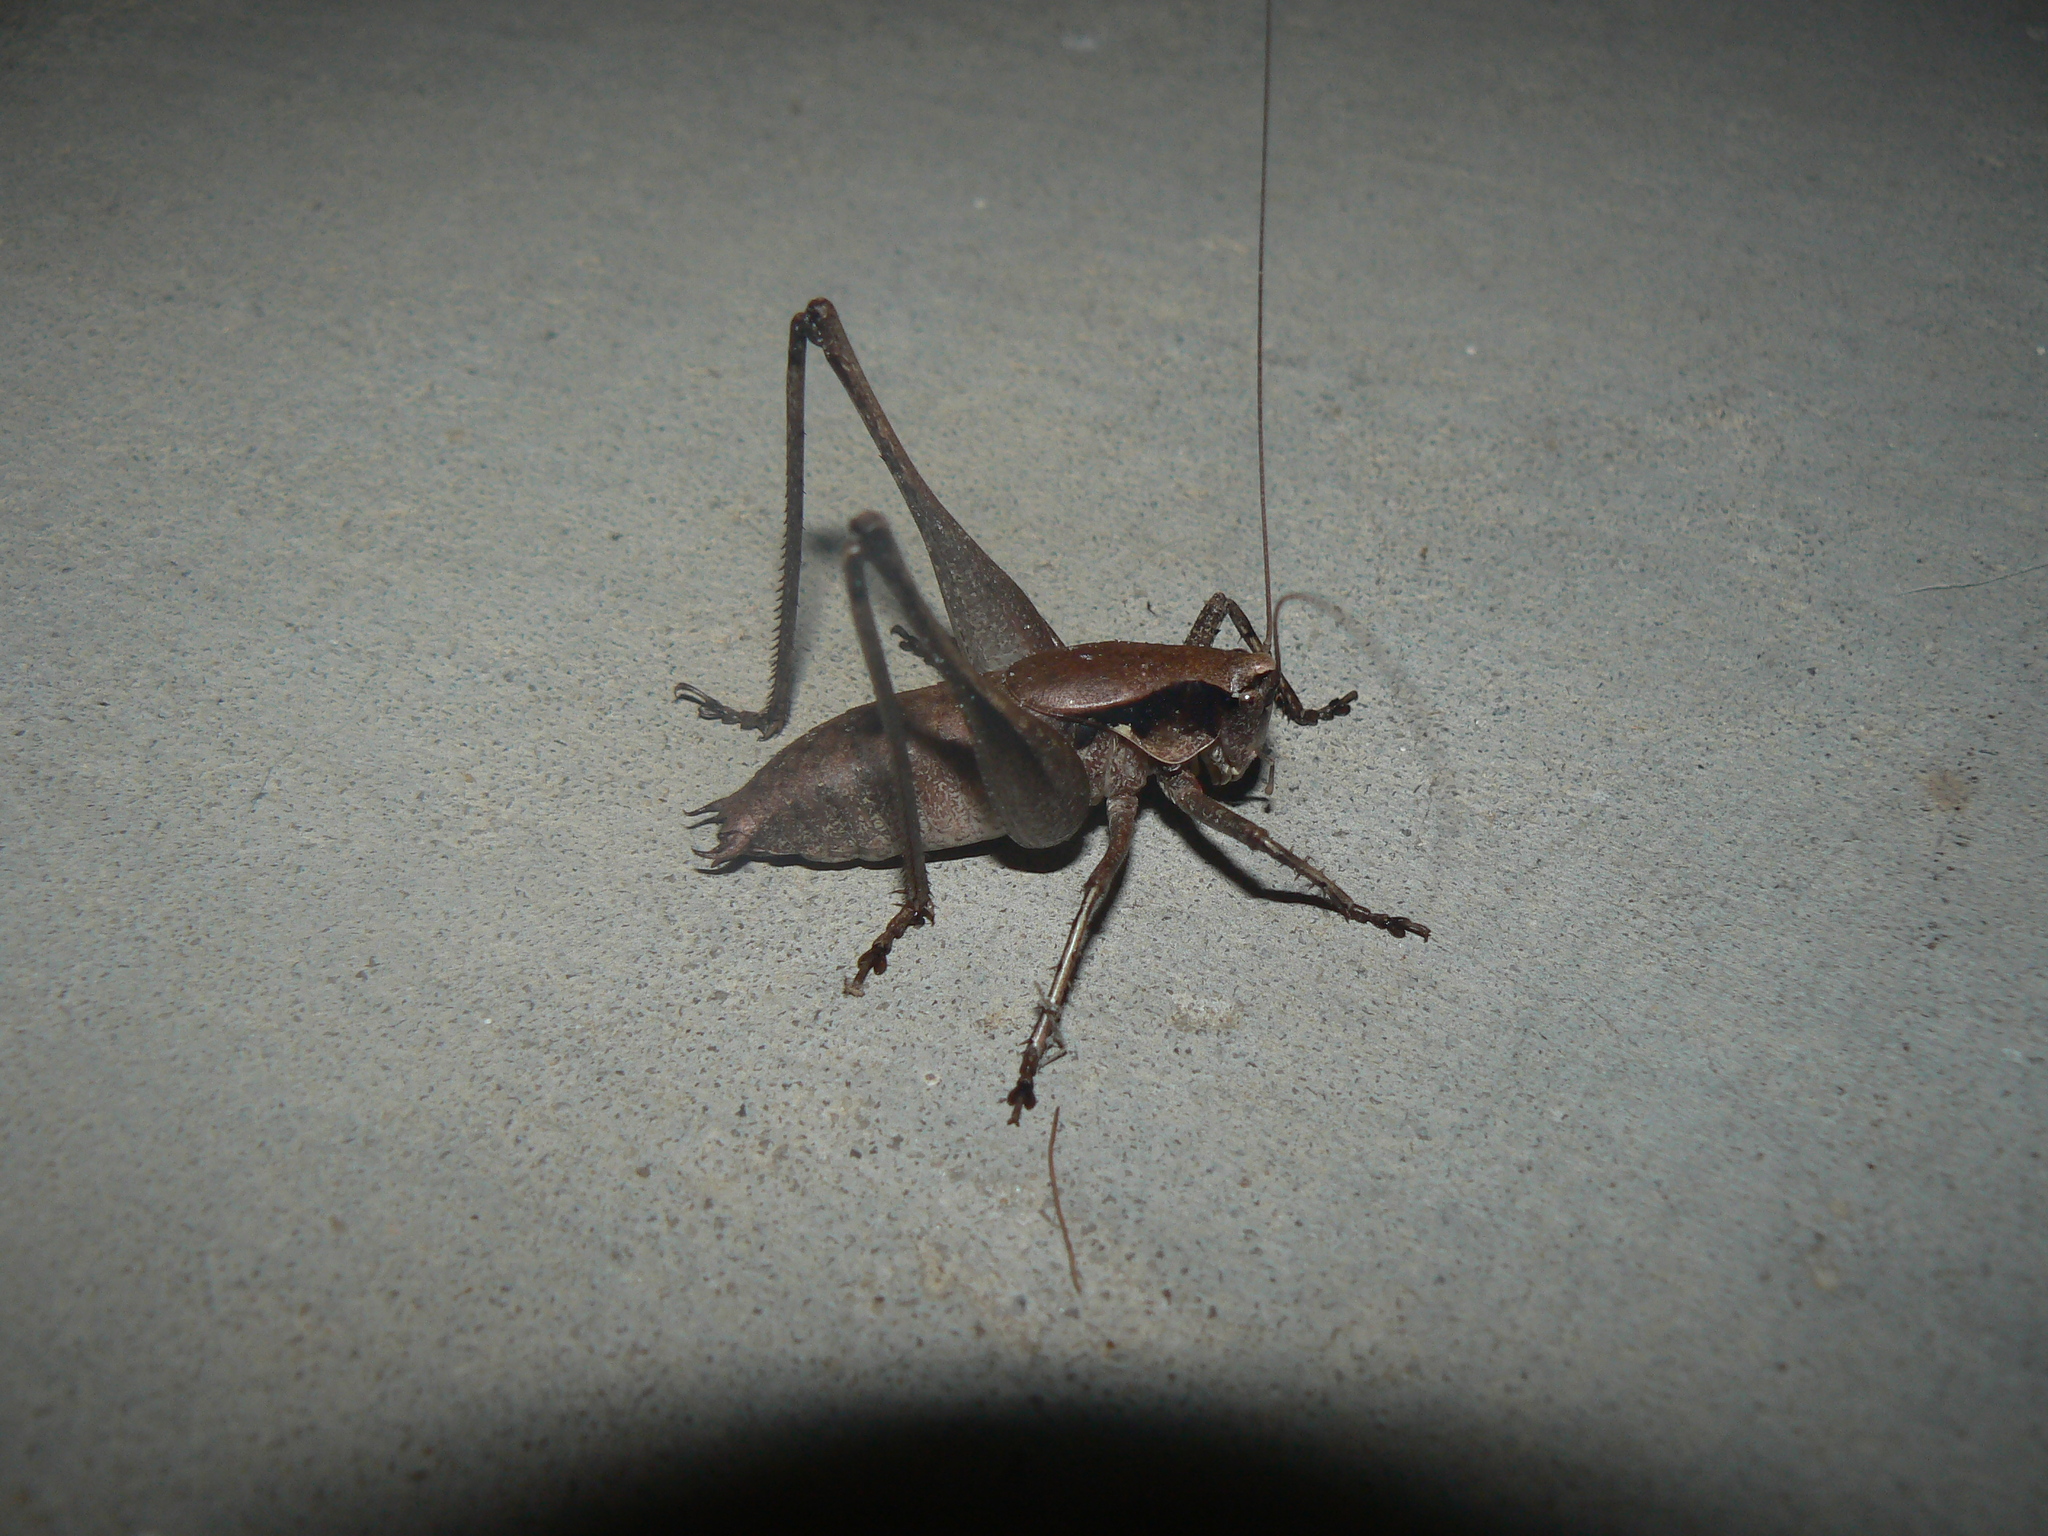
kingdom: Animalia
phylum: Arthropoda
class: Insecta
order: Orthoptera
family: Tettigoniidae
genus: Atlanticus
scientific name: Atlanticus gibbosus
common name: Robust shield-bearer
